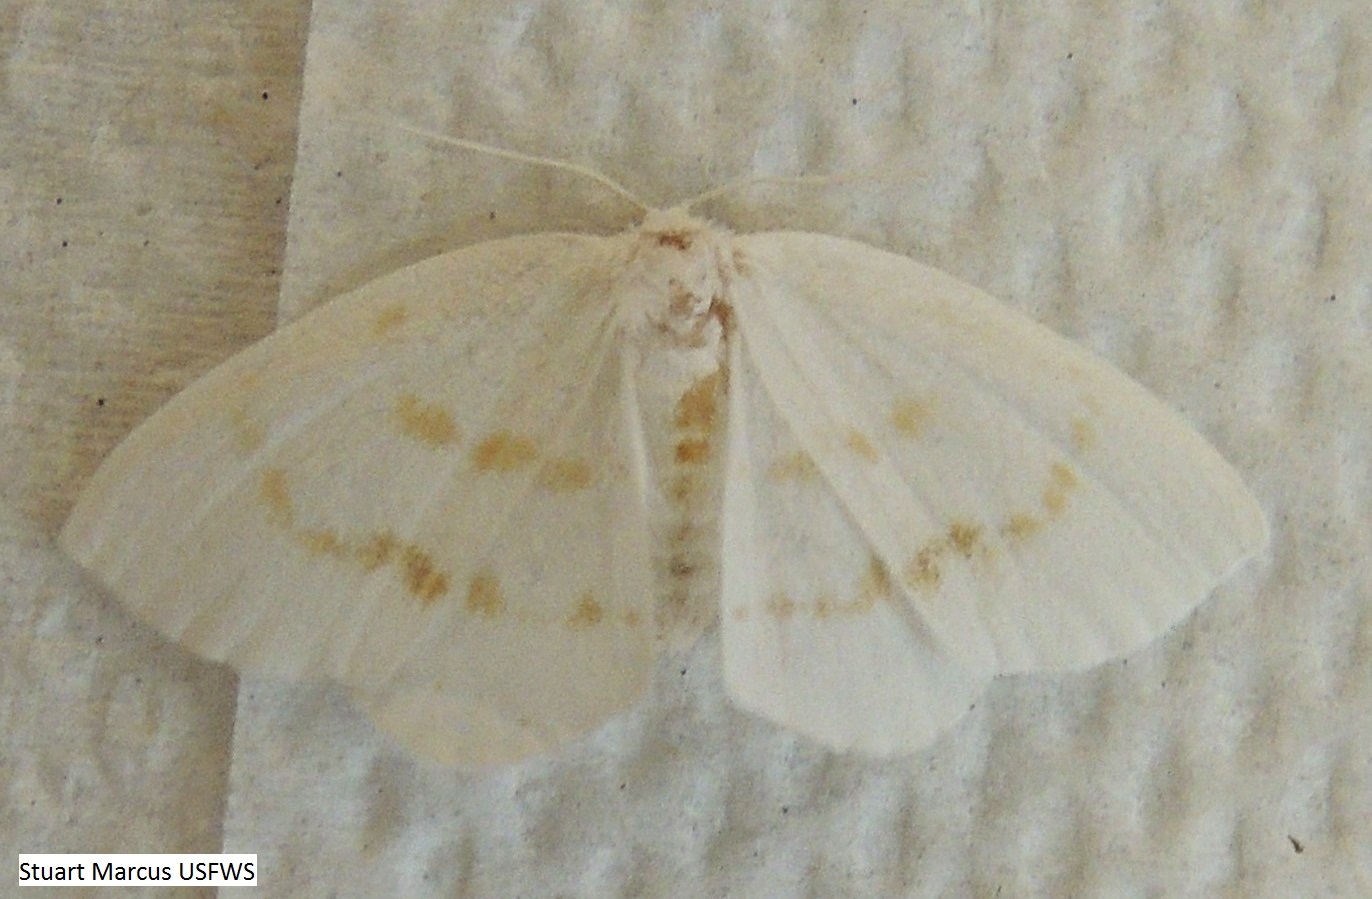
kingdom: Animalia
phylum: Arthropoda
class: Insecta
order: Lepidoptera
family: Drepanidae
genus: Eudeilinia
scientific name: Eudeilinia herminiata
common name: Northern eudeilinea moth
